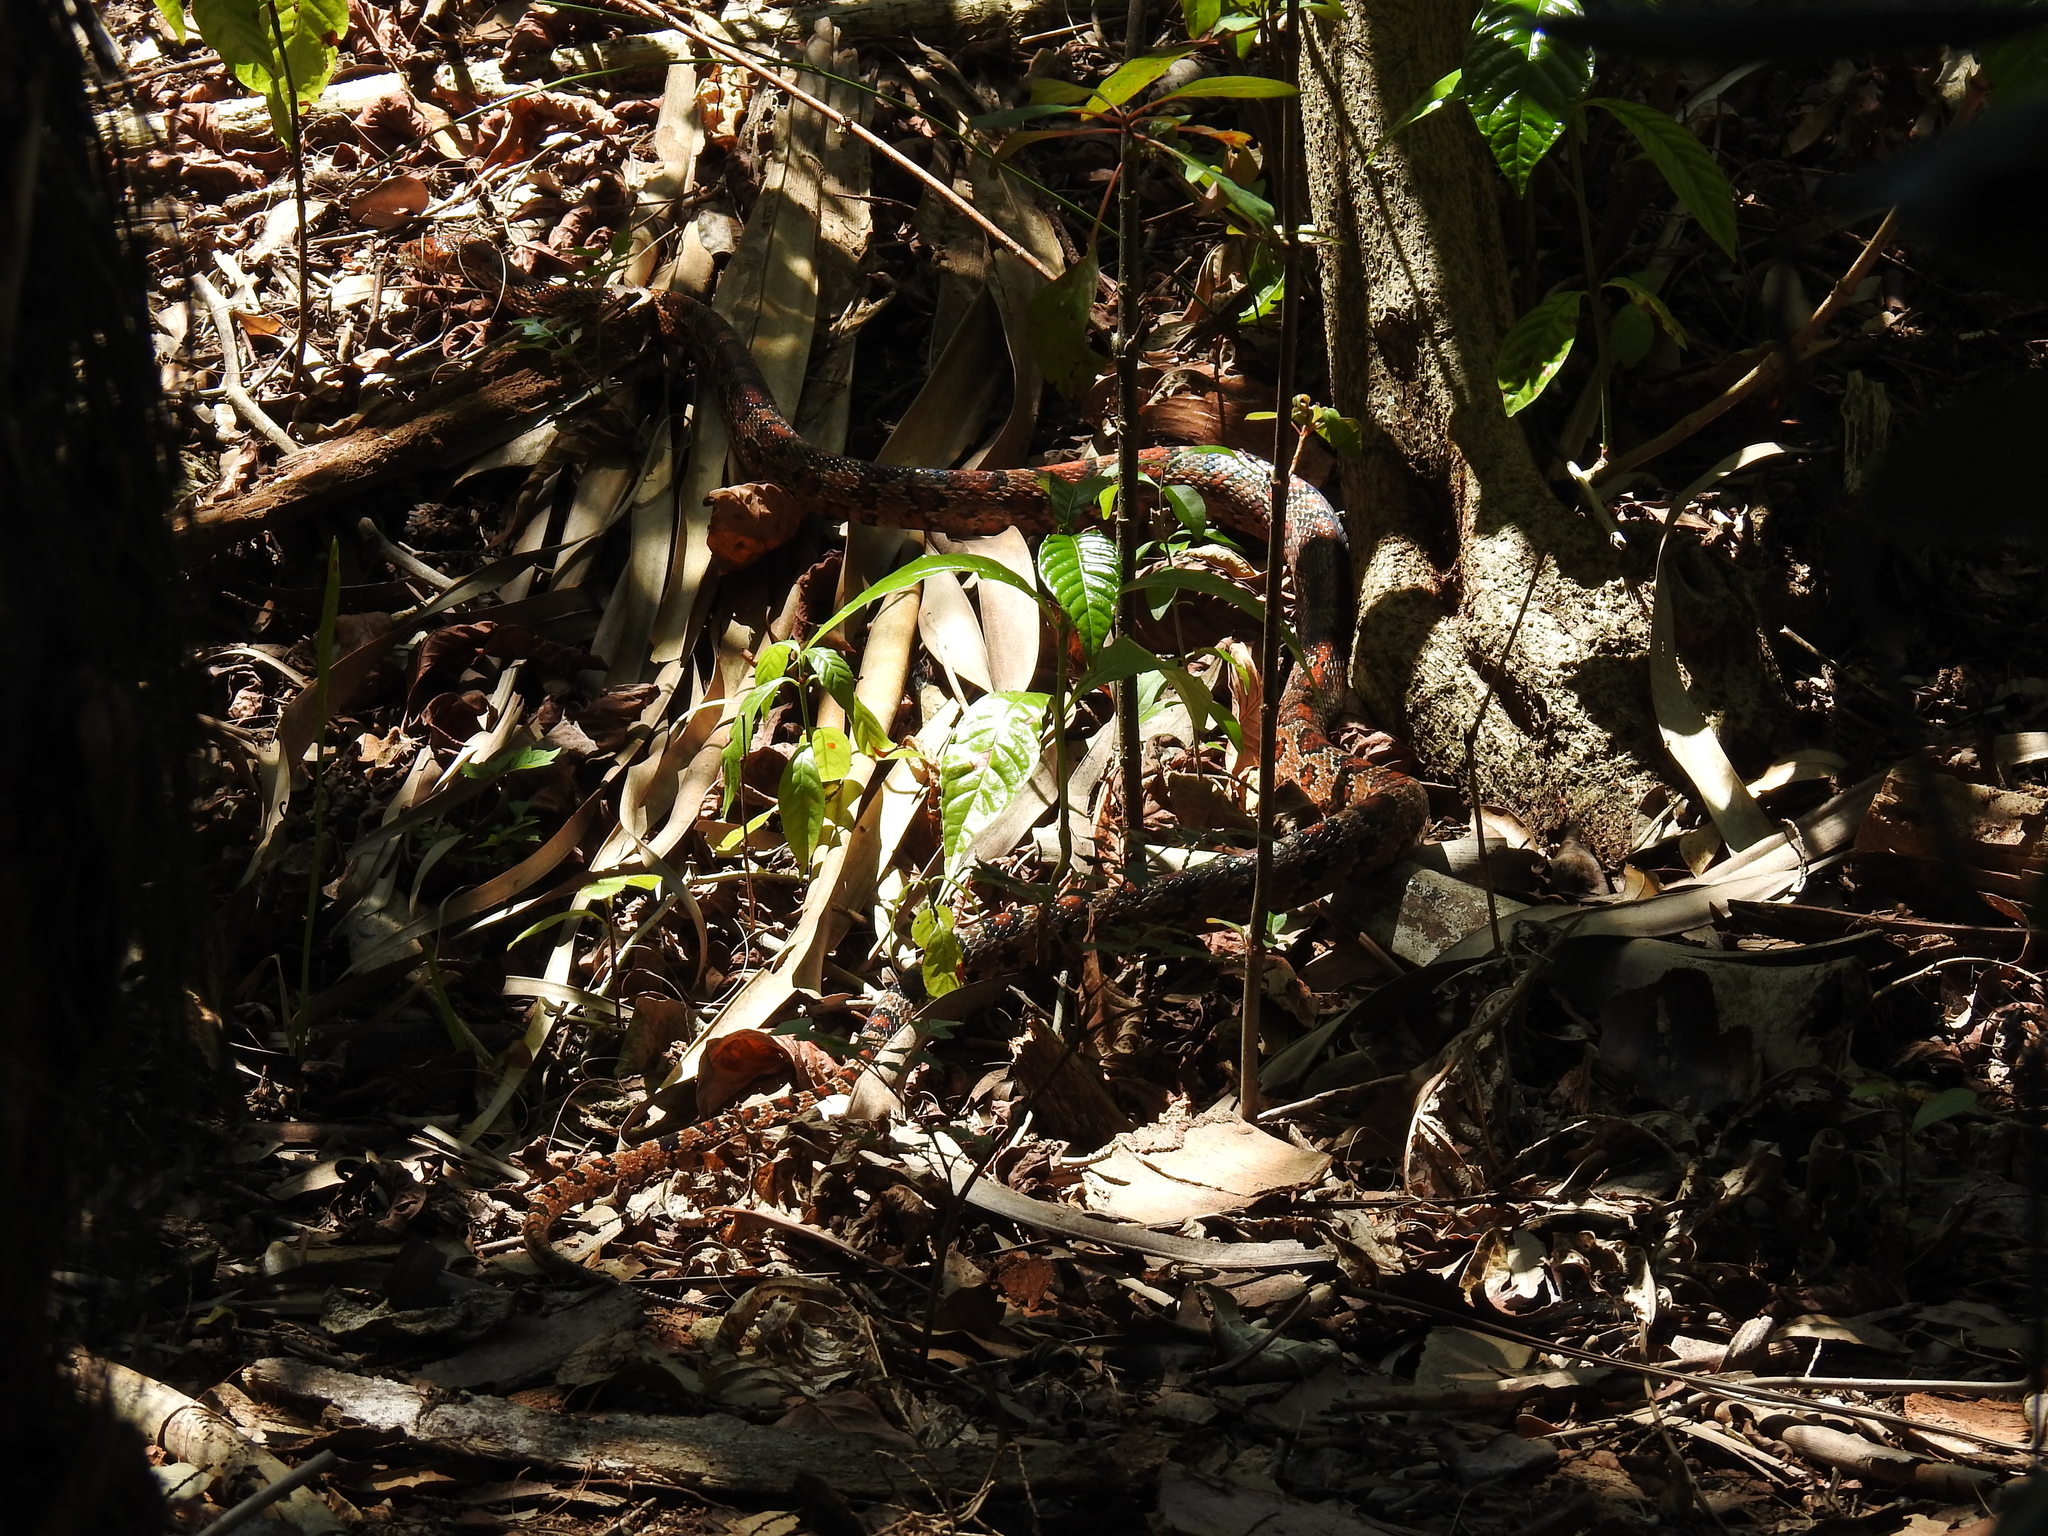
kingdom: Animalia
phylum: Chordata
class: Squamata
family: Colubridae
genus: Pantherophis
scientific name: Pantherophis guttatus
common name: Red cornsnake
